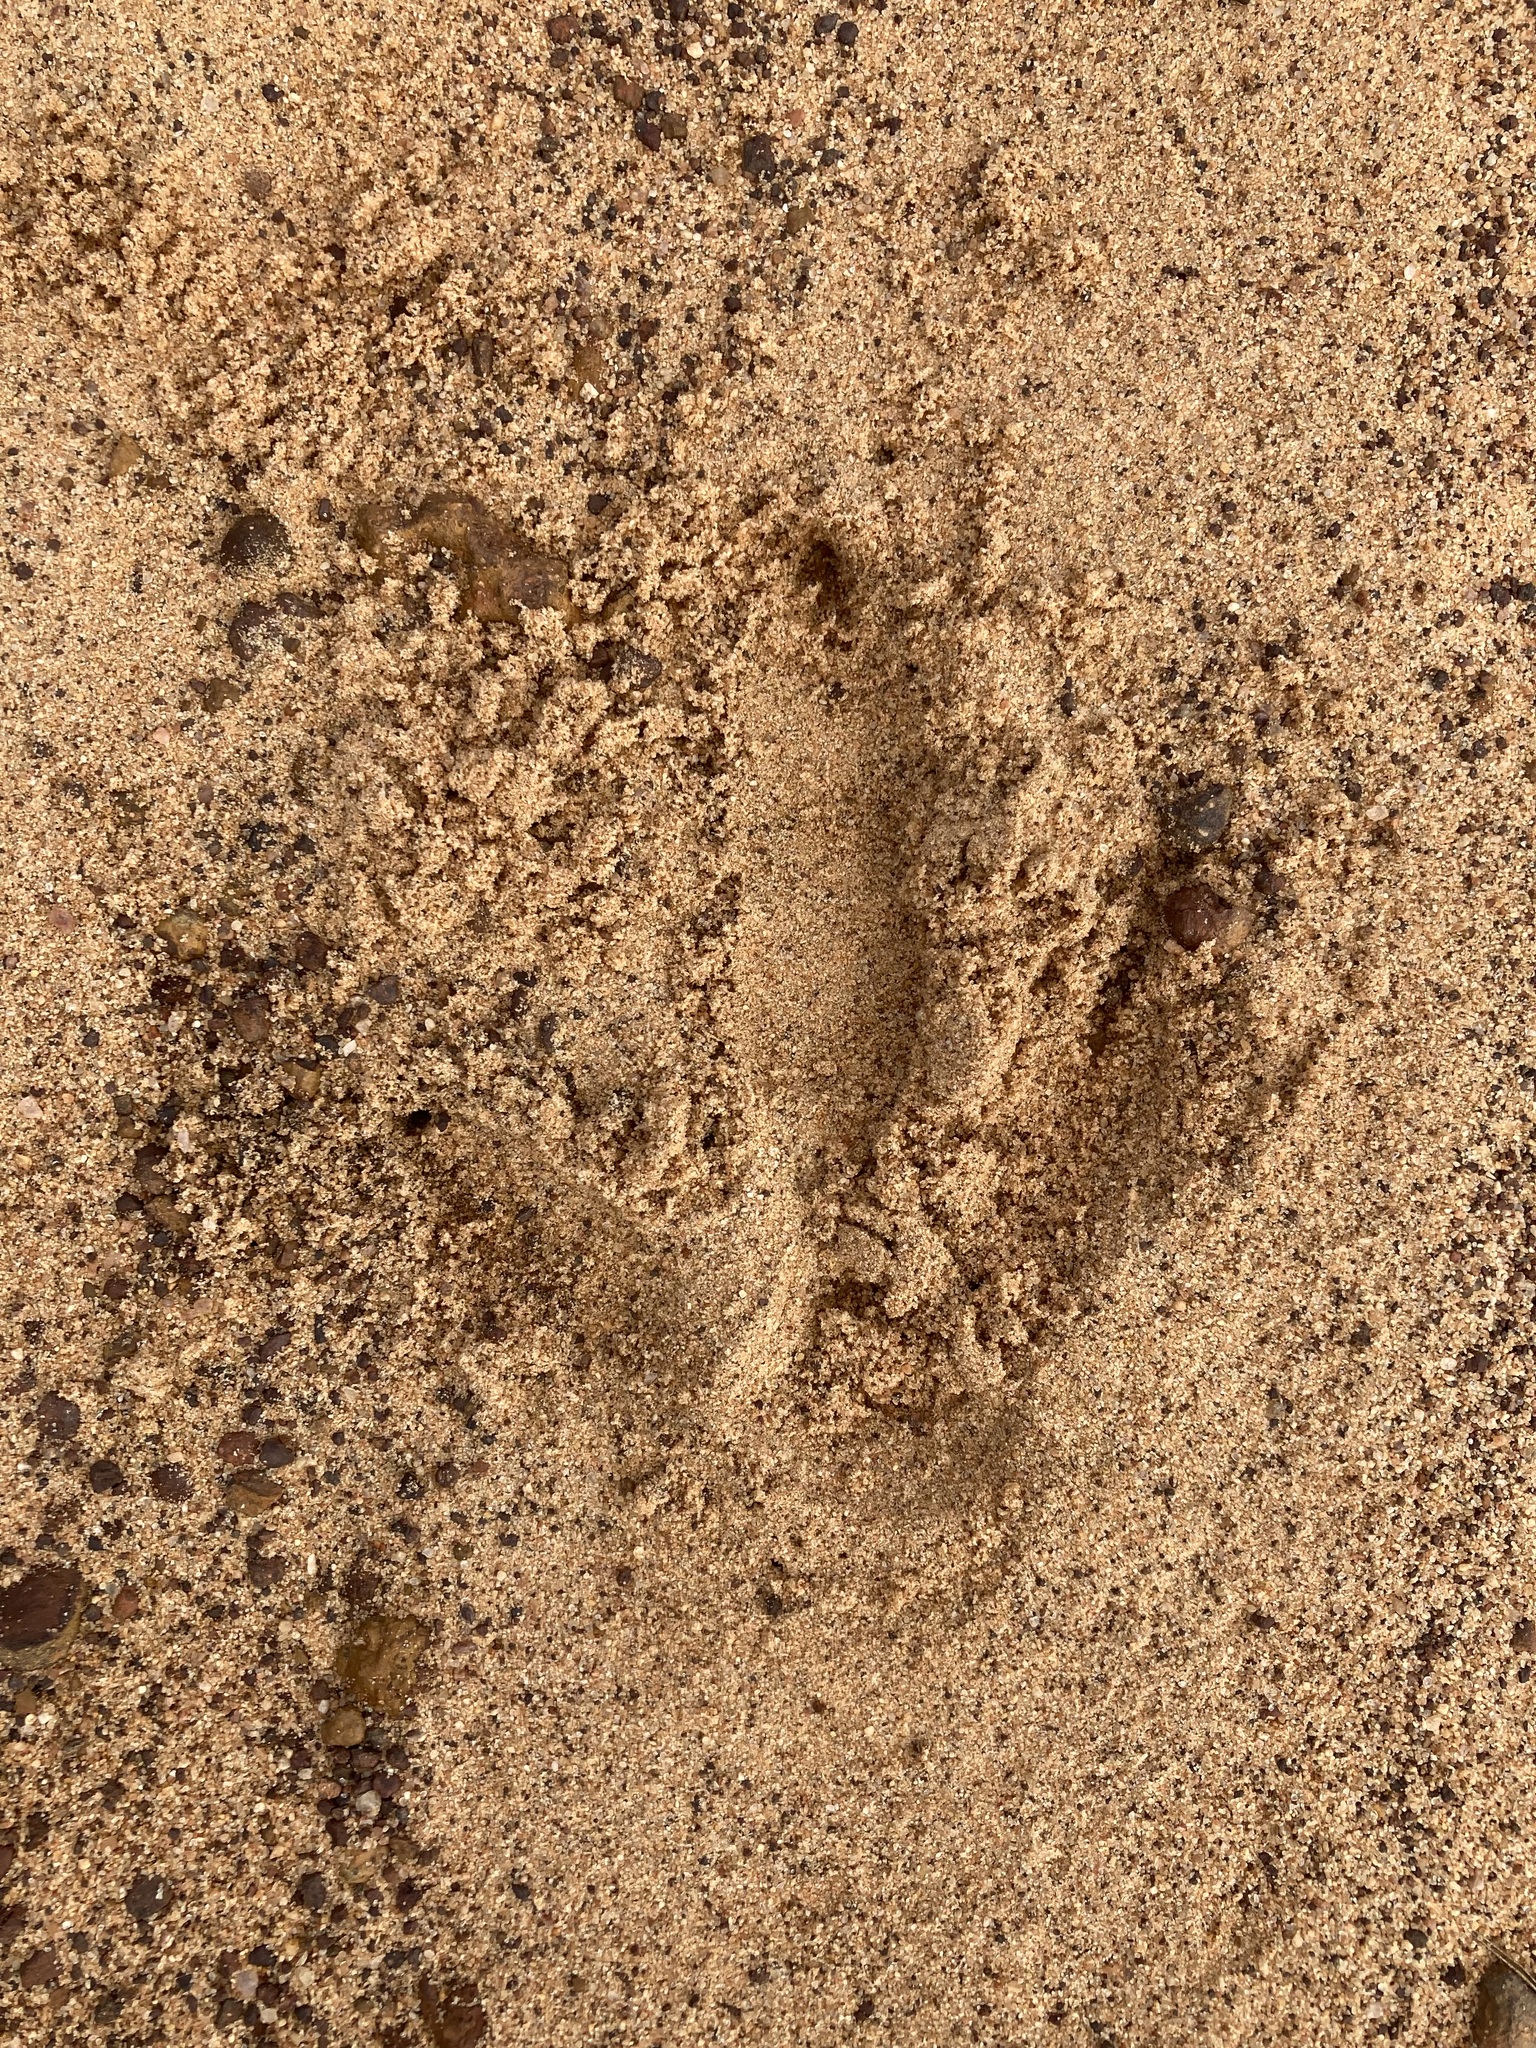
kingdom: Animalia
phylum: Chordata
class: Aves
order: Casuariiformes
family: Dromaiidae
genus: Dromaius
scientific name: Dromaius novaehollandiae
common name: Emu
